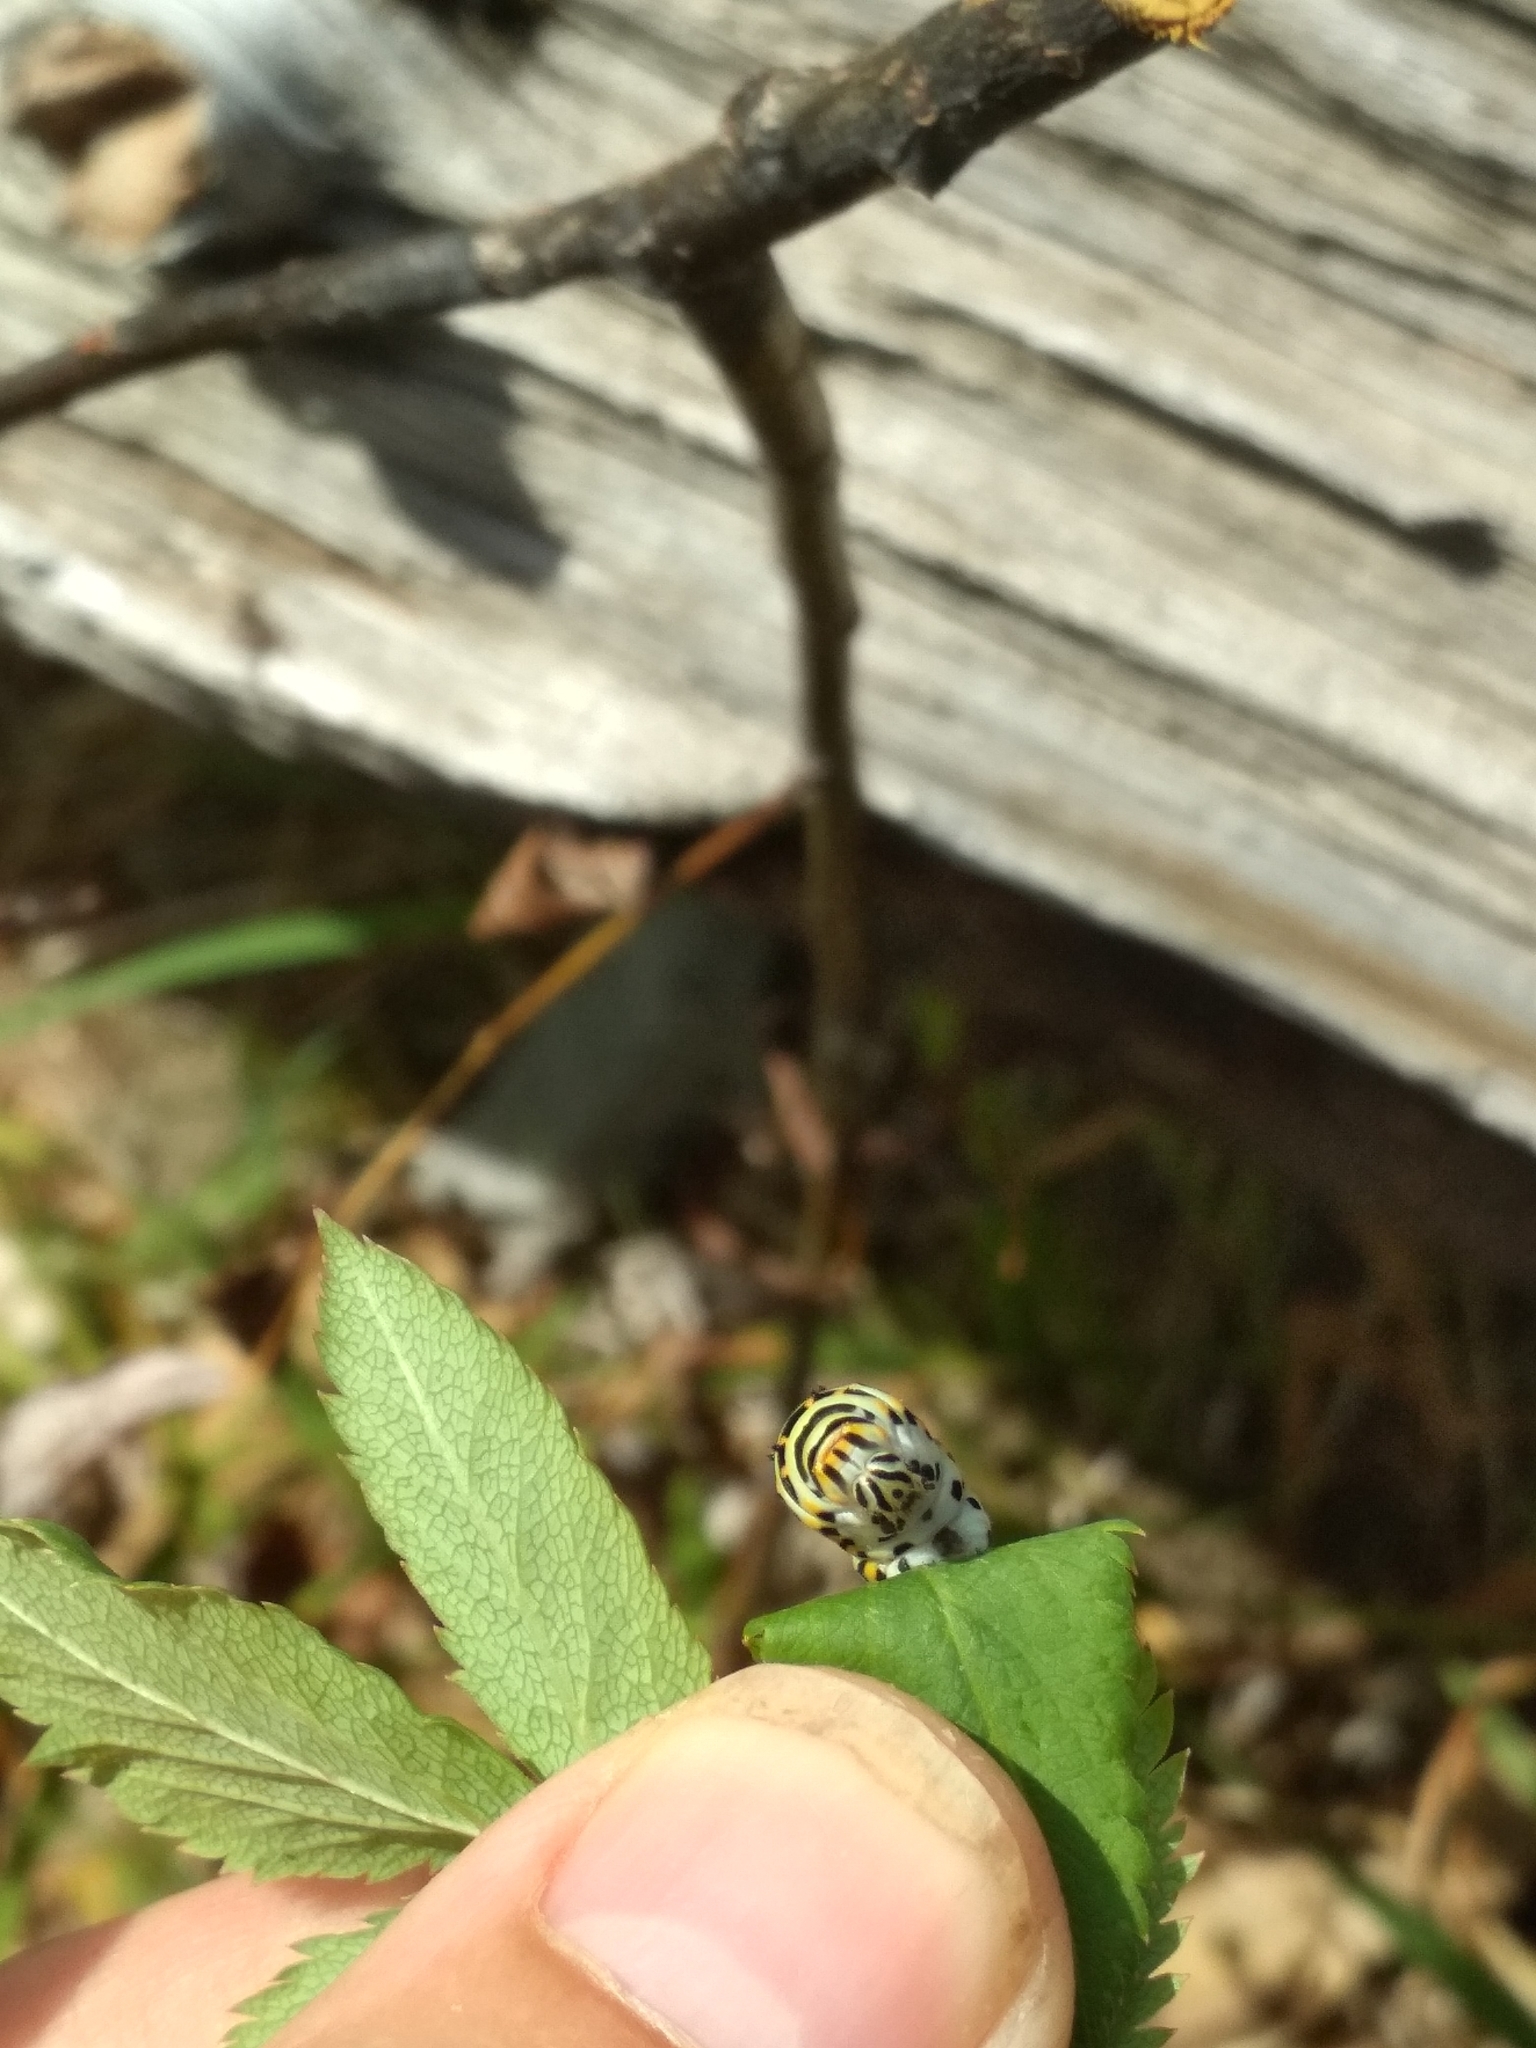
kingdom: Animalia
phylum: Arthropoda
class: Insecta
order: Lepidoptera
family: Papilionidae
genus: Papilio
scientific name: Papilio machaon
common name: Swallowtail
